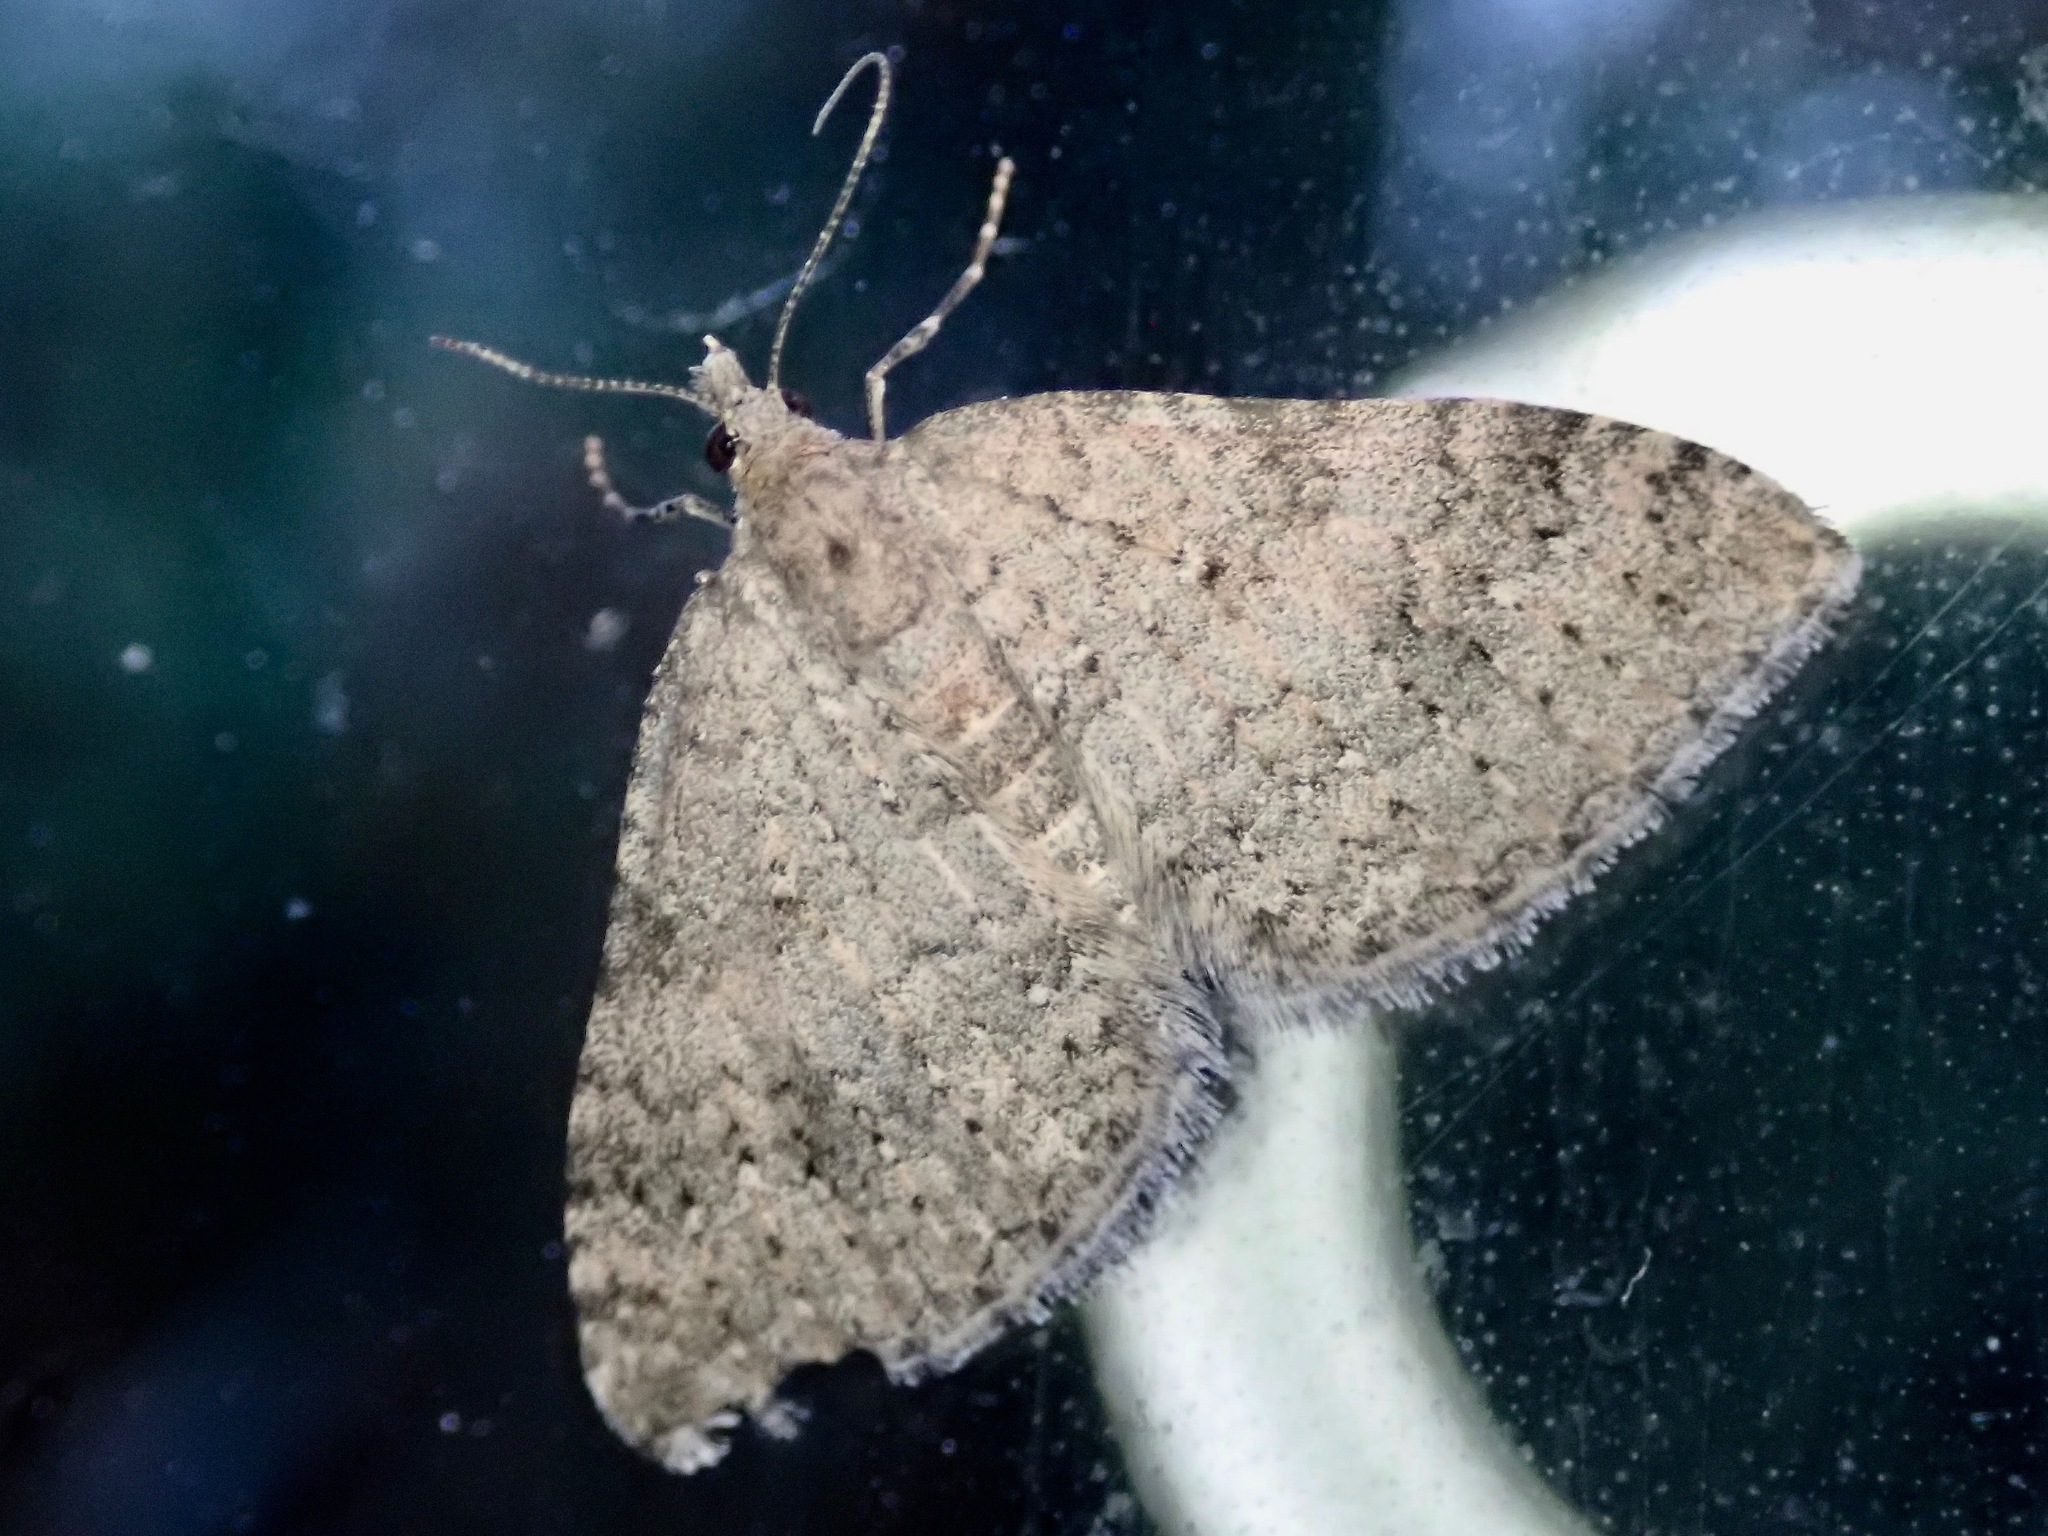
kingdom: Animalia
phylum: Arthropoda
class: Insecta
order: Lepidoptera
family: Geometridae
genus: Helastia
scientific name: Helastia corcularia
